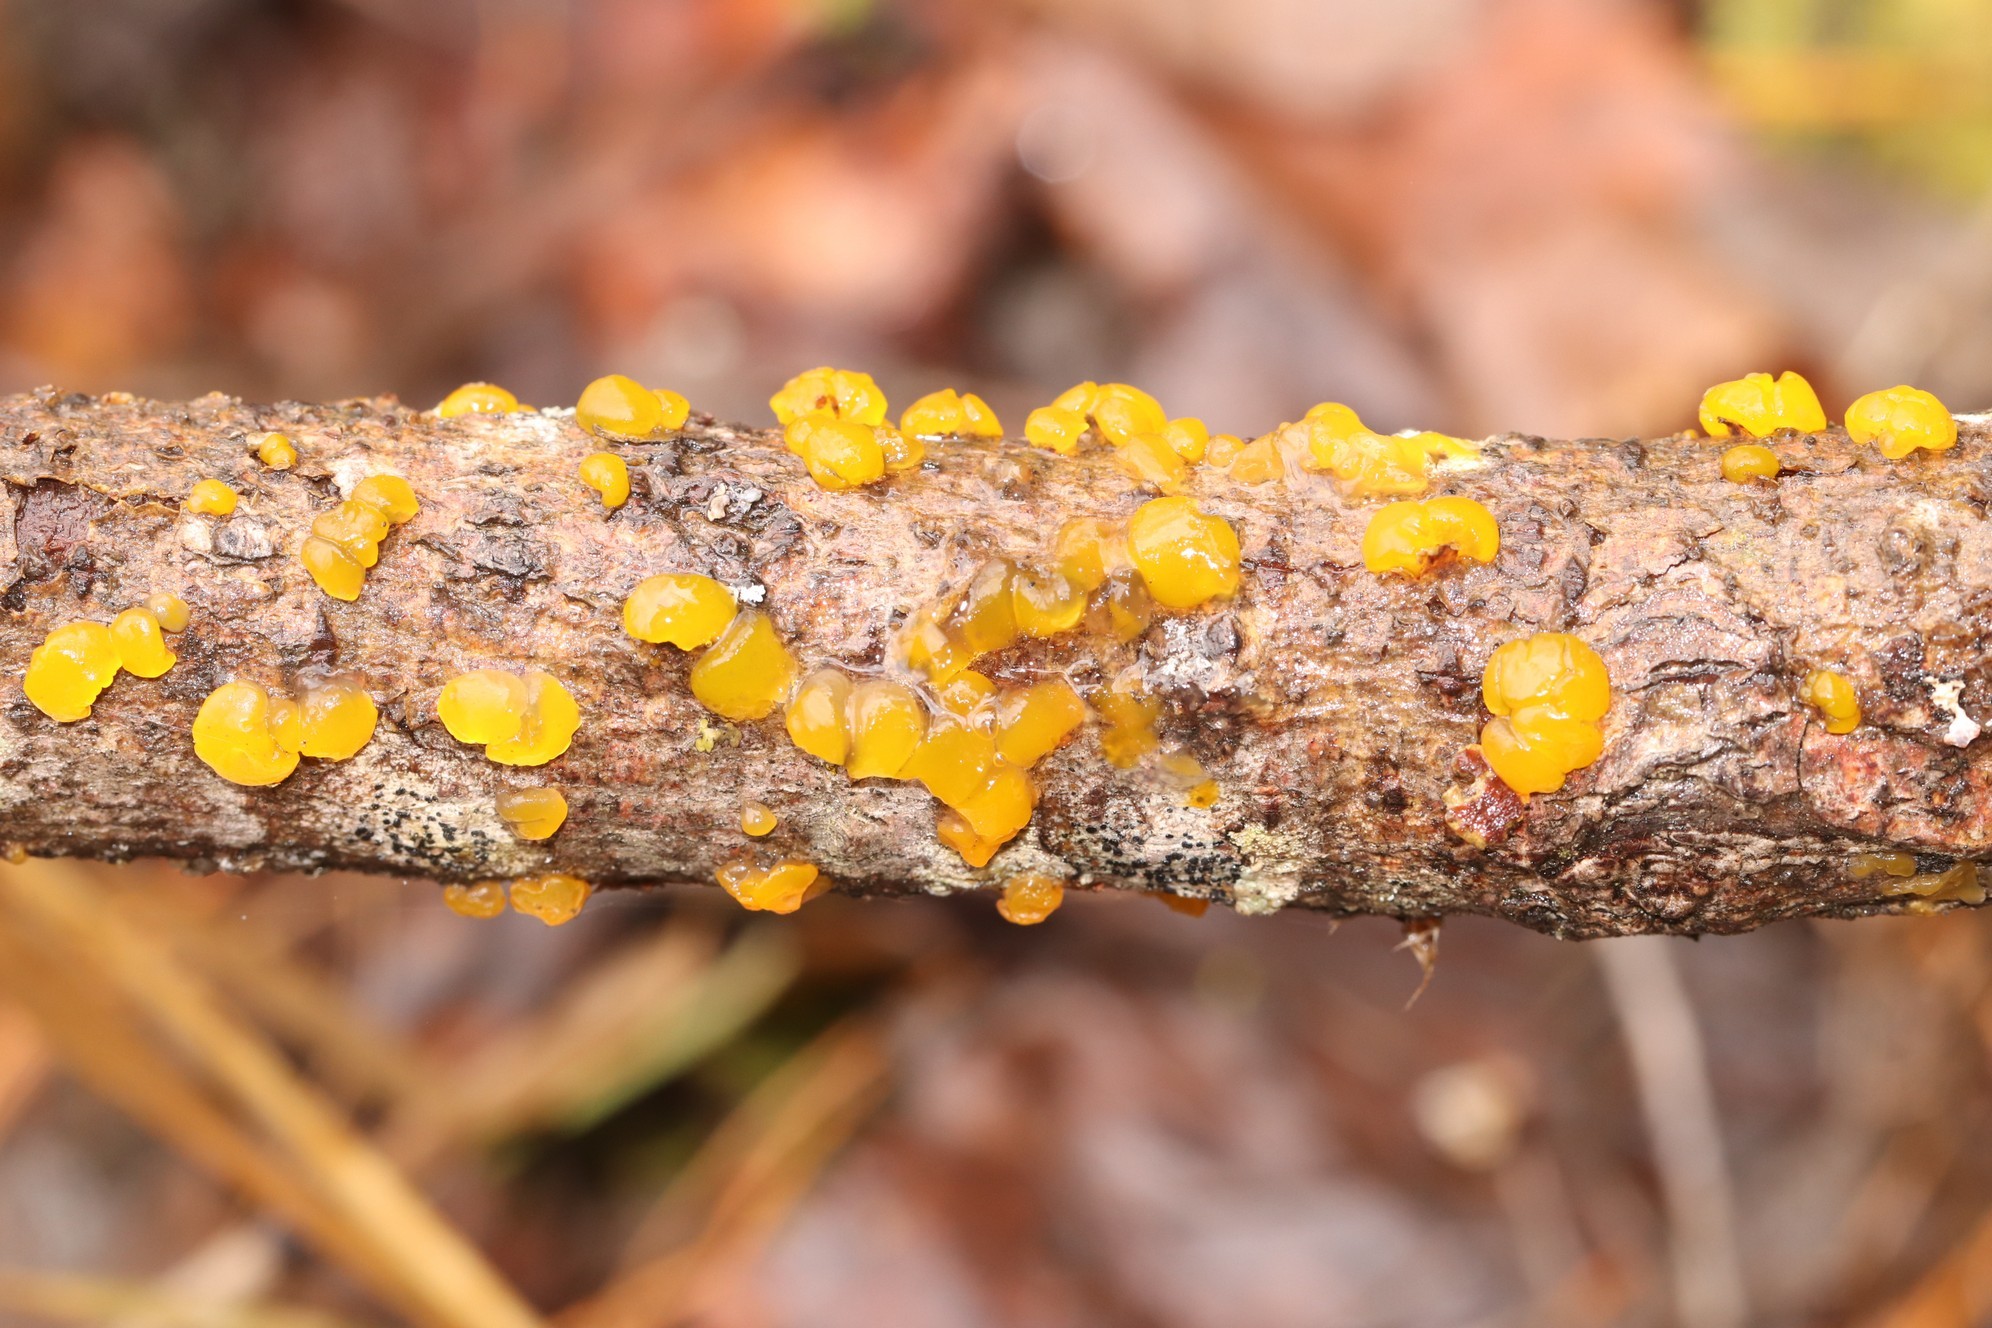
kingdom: Fungi
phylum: Basidiomycota
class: Tremellomycetes
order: Tremellales
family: Tremellaceae
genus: Tremella
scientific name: Tremella mesenterica
